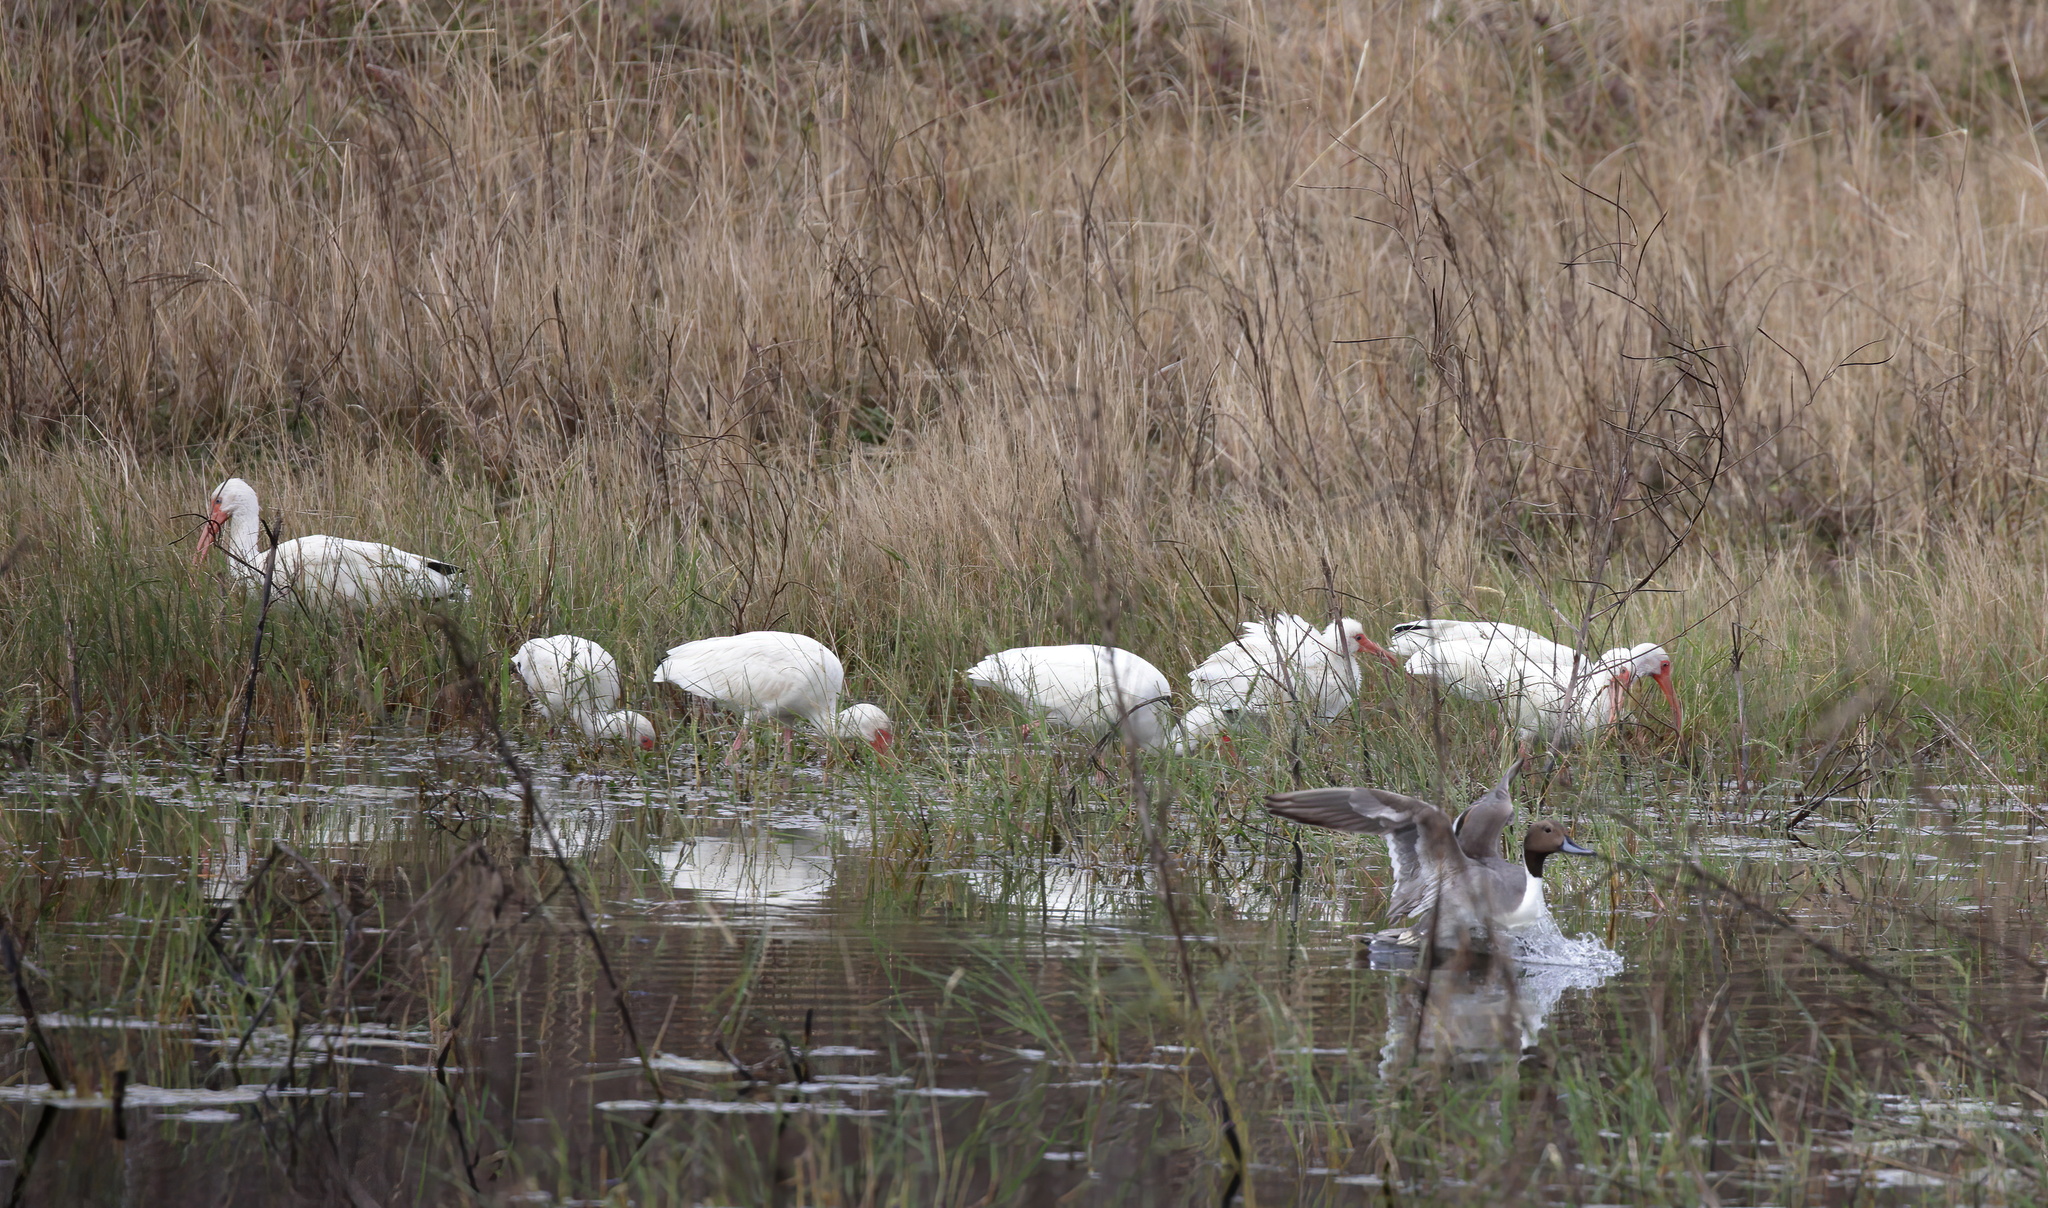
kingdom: Animalia
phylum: Chordata
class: Aves
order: Pelecaniformes
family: Threskiornithidae
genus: Eudocimus
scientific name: Eudocimus albus
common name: White ibis
